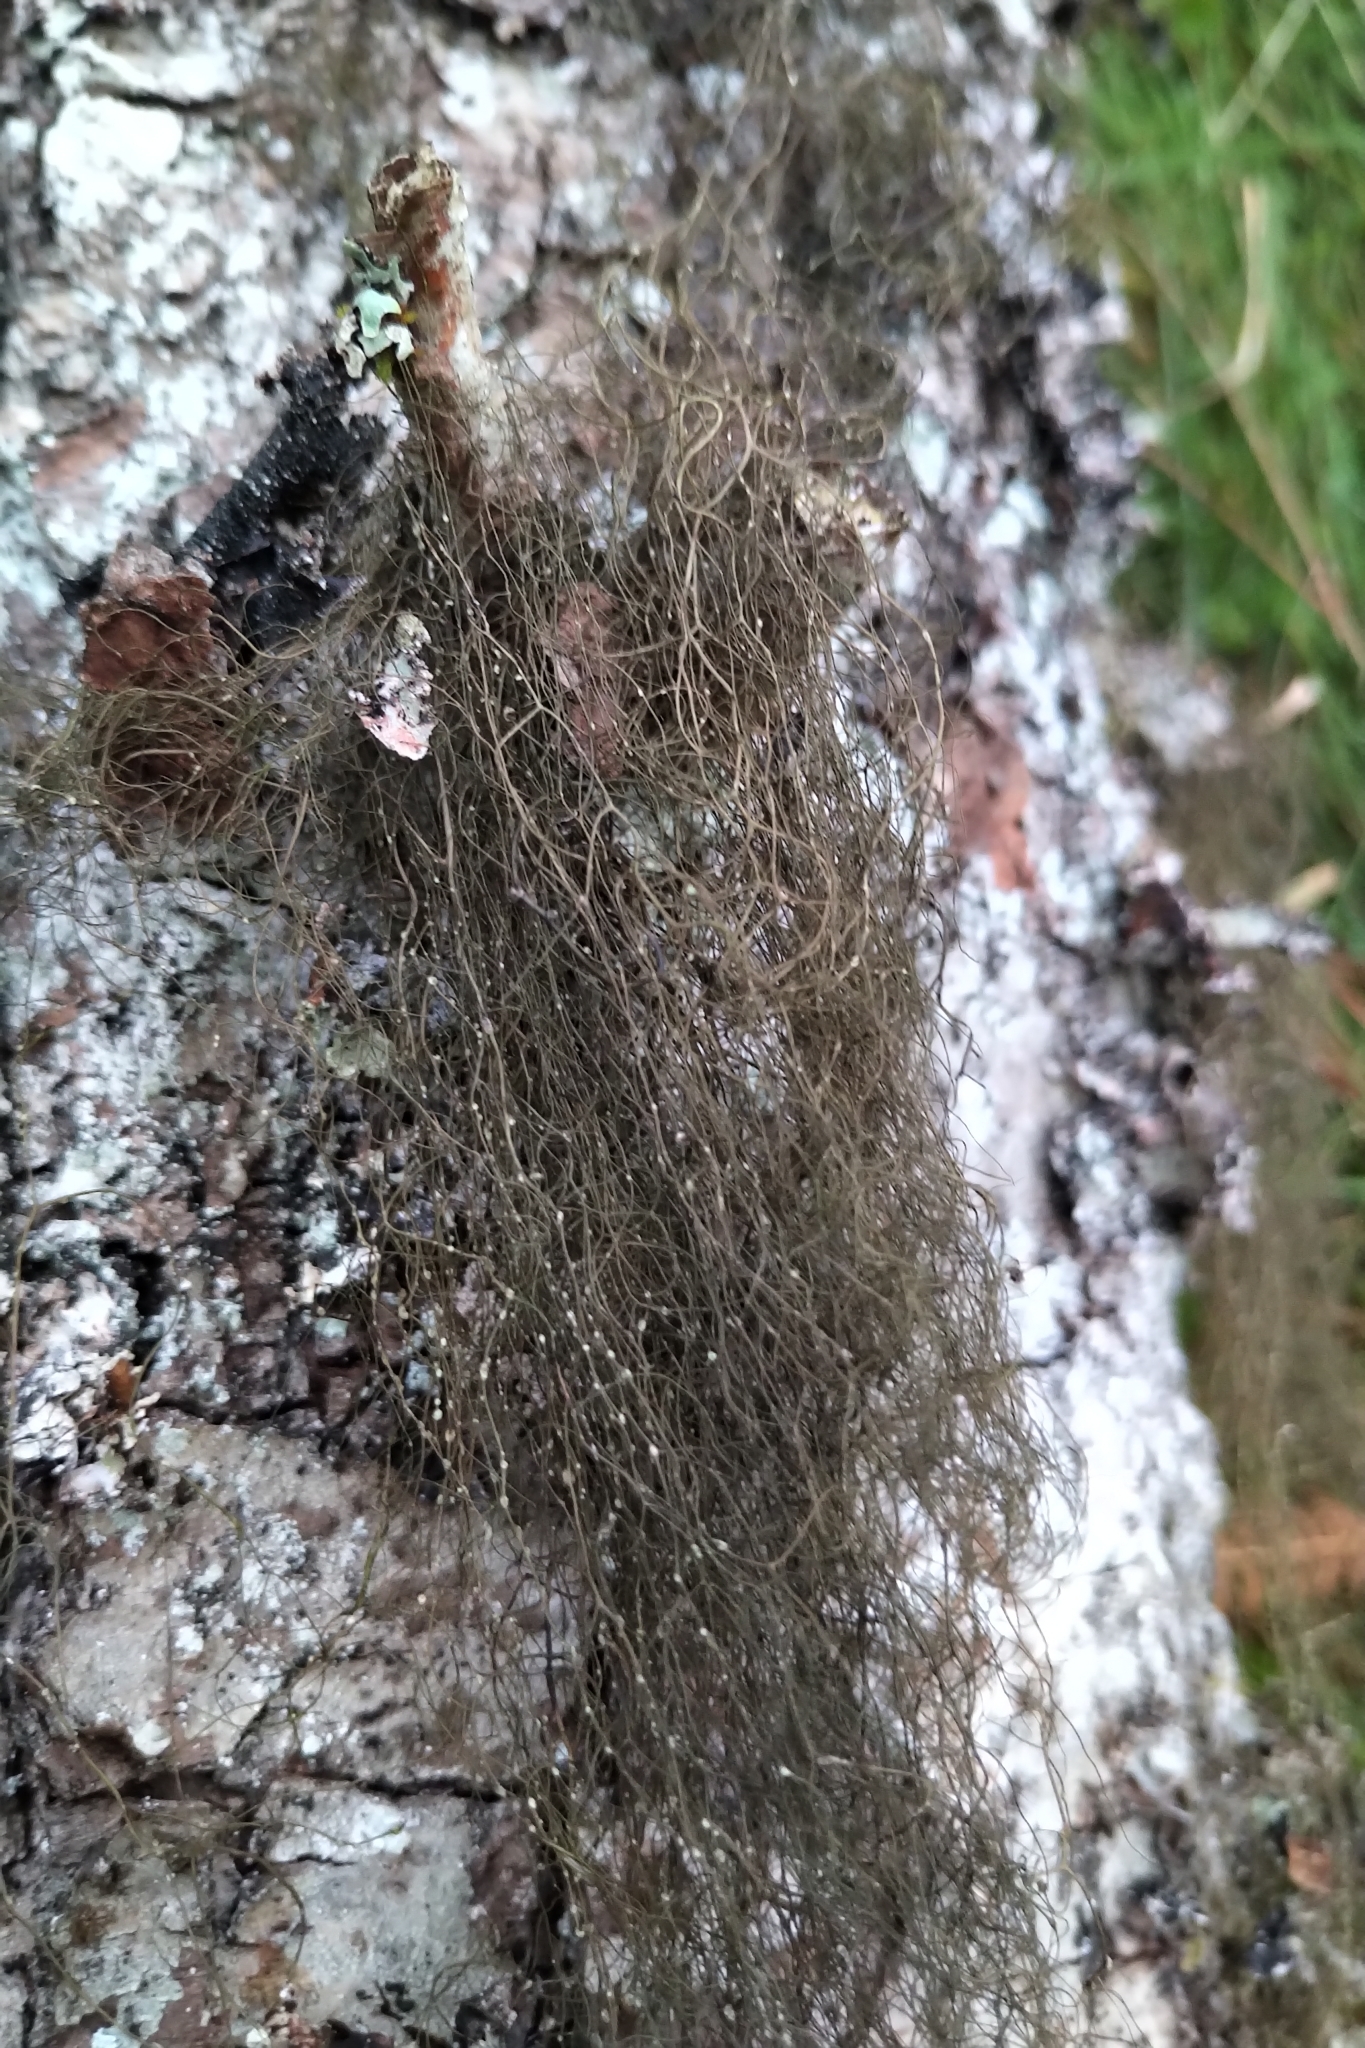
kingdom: Fungi
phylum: Ascomycota
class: Lecanoromycetes
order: Lecanorales
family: Parmeliaceae
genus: Bryoria
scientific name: Bryoria fuscescens
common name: Pale-footed horsehair lichen
